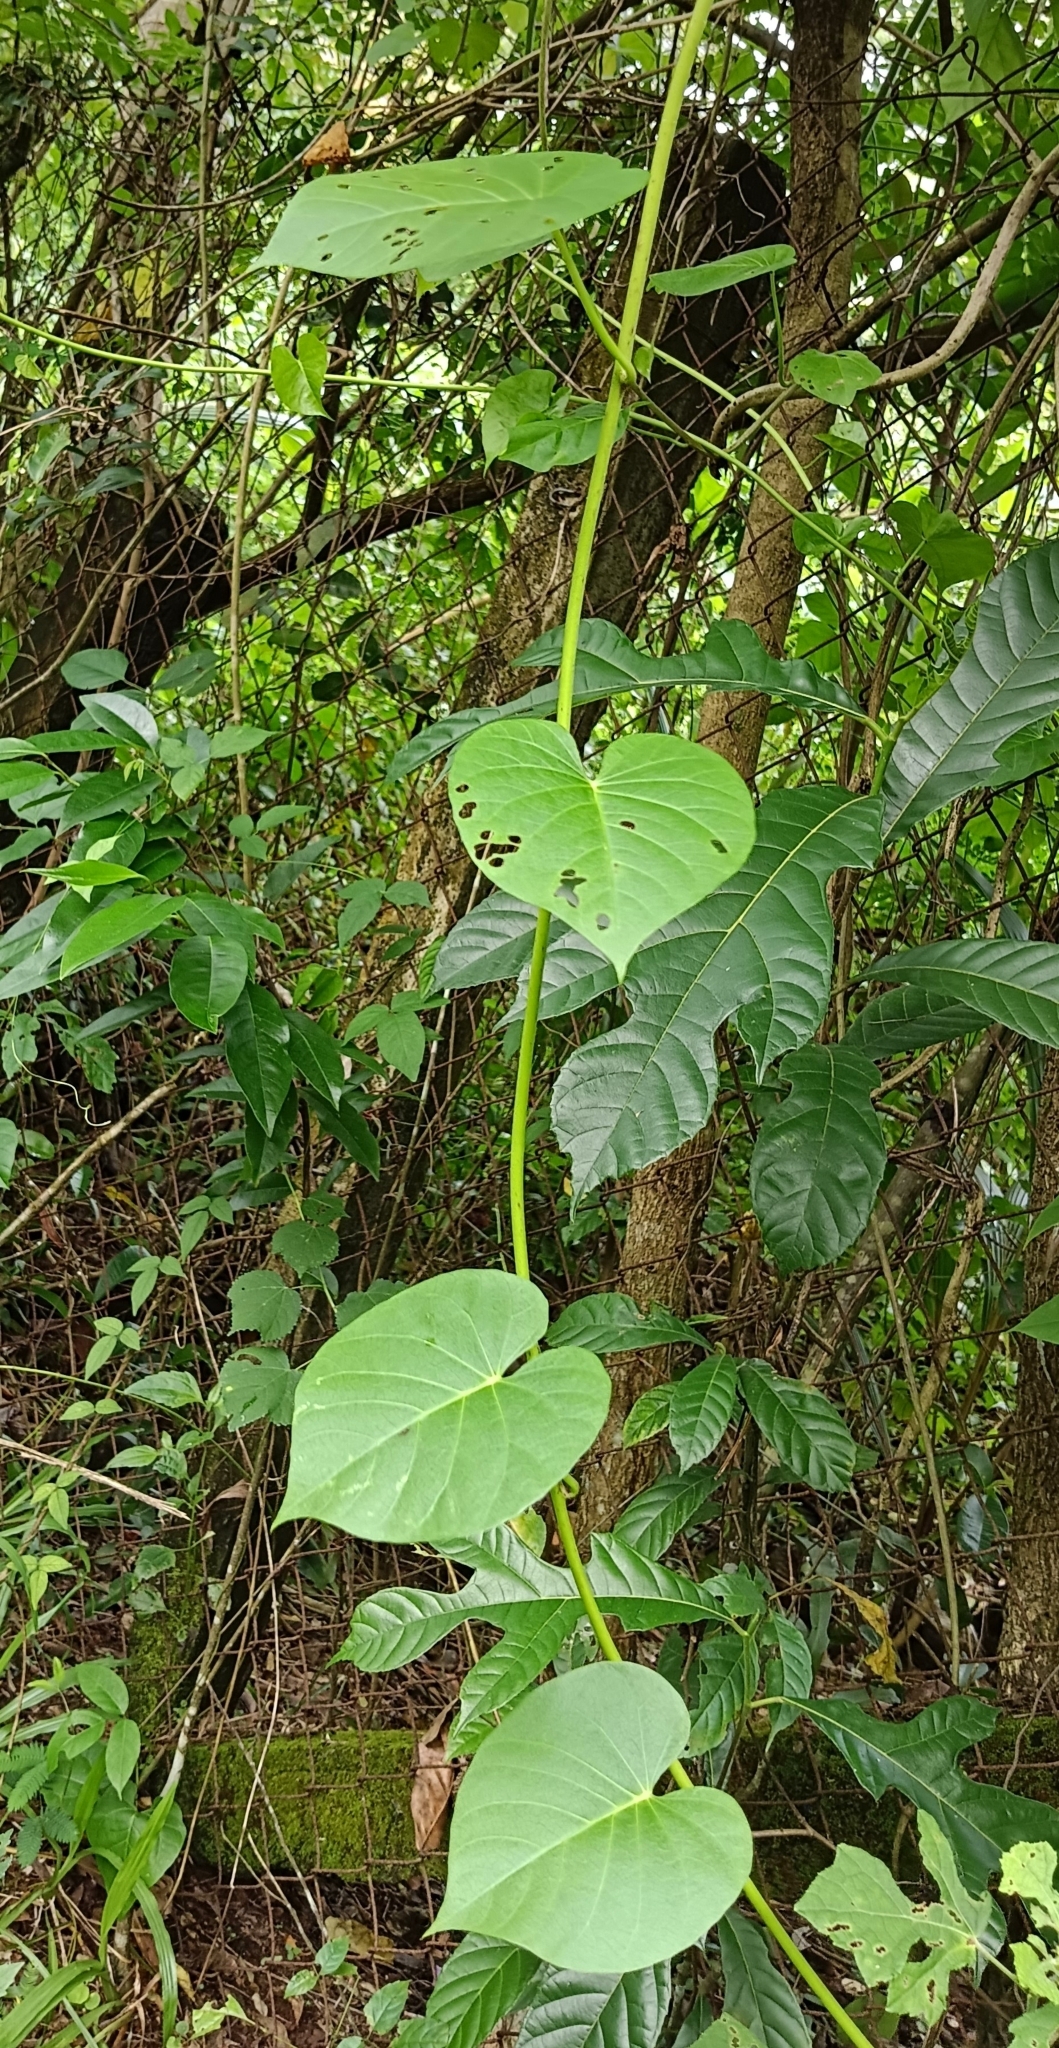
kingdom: Plantae
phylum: Tracheophyta
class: Magnoliopsida
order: Solanales
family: Convolvulaceae
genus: Ipomoea
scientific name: Ipomoea violacea
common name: Beach moonflower
